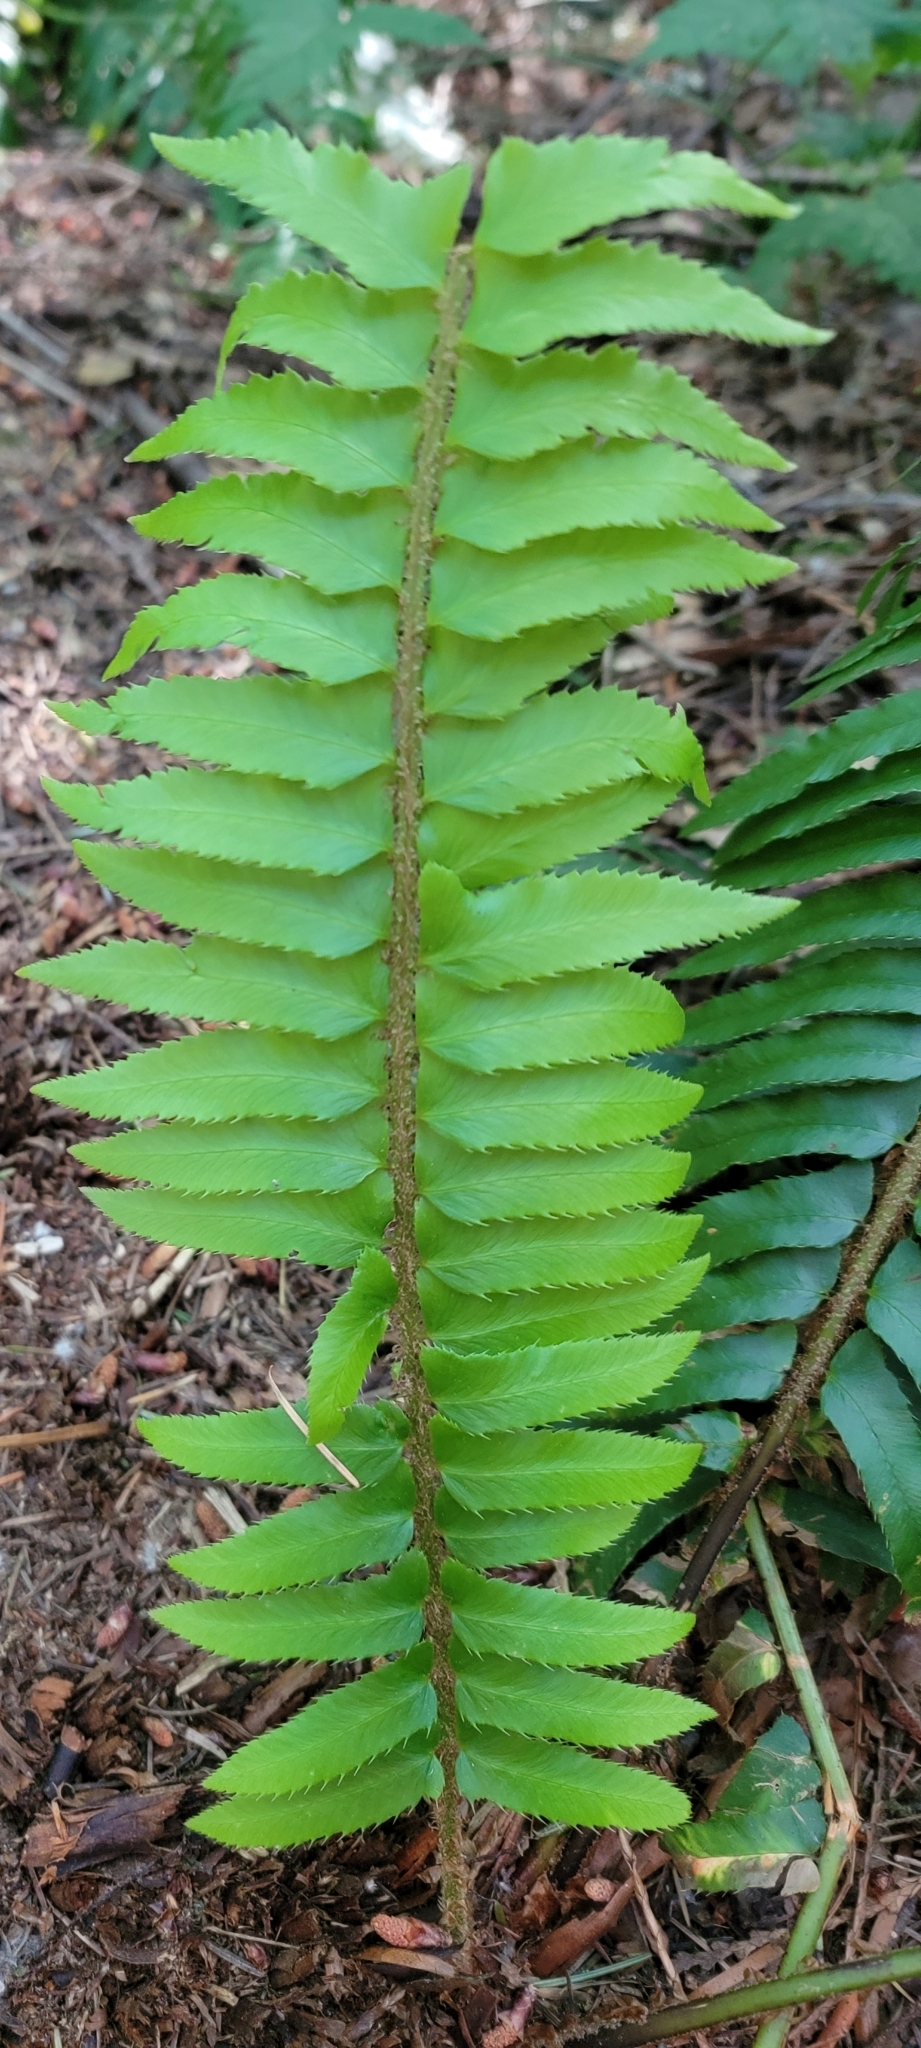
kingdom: Plantae
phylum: Tracheophyta
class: Polypodiopsida
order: Polypodiales
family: Dryopteridaceae
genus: Polystichum
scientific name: Polystichum munitum
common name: Western sword-fern
